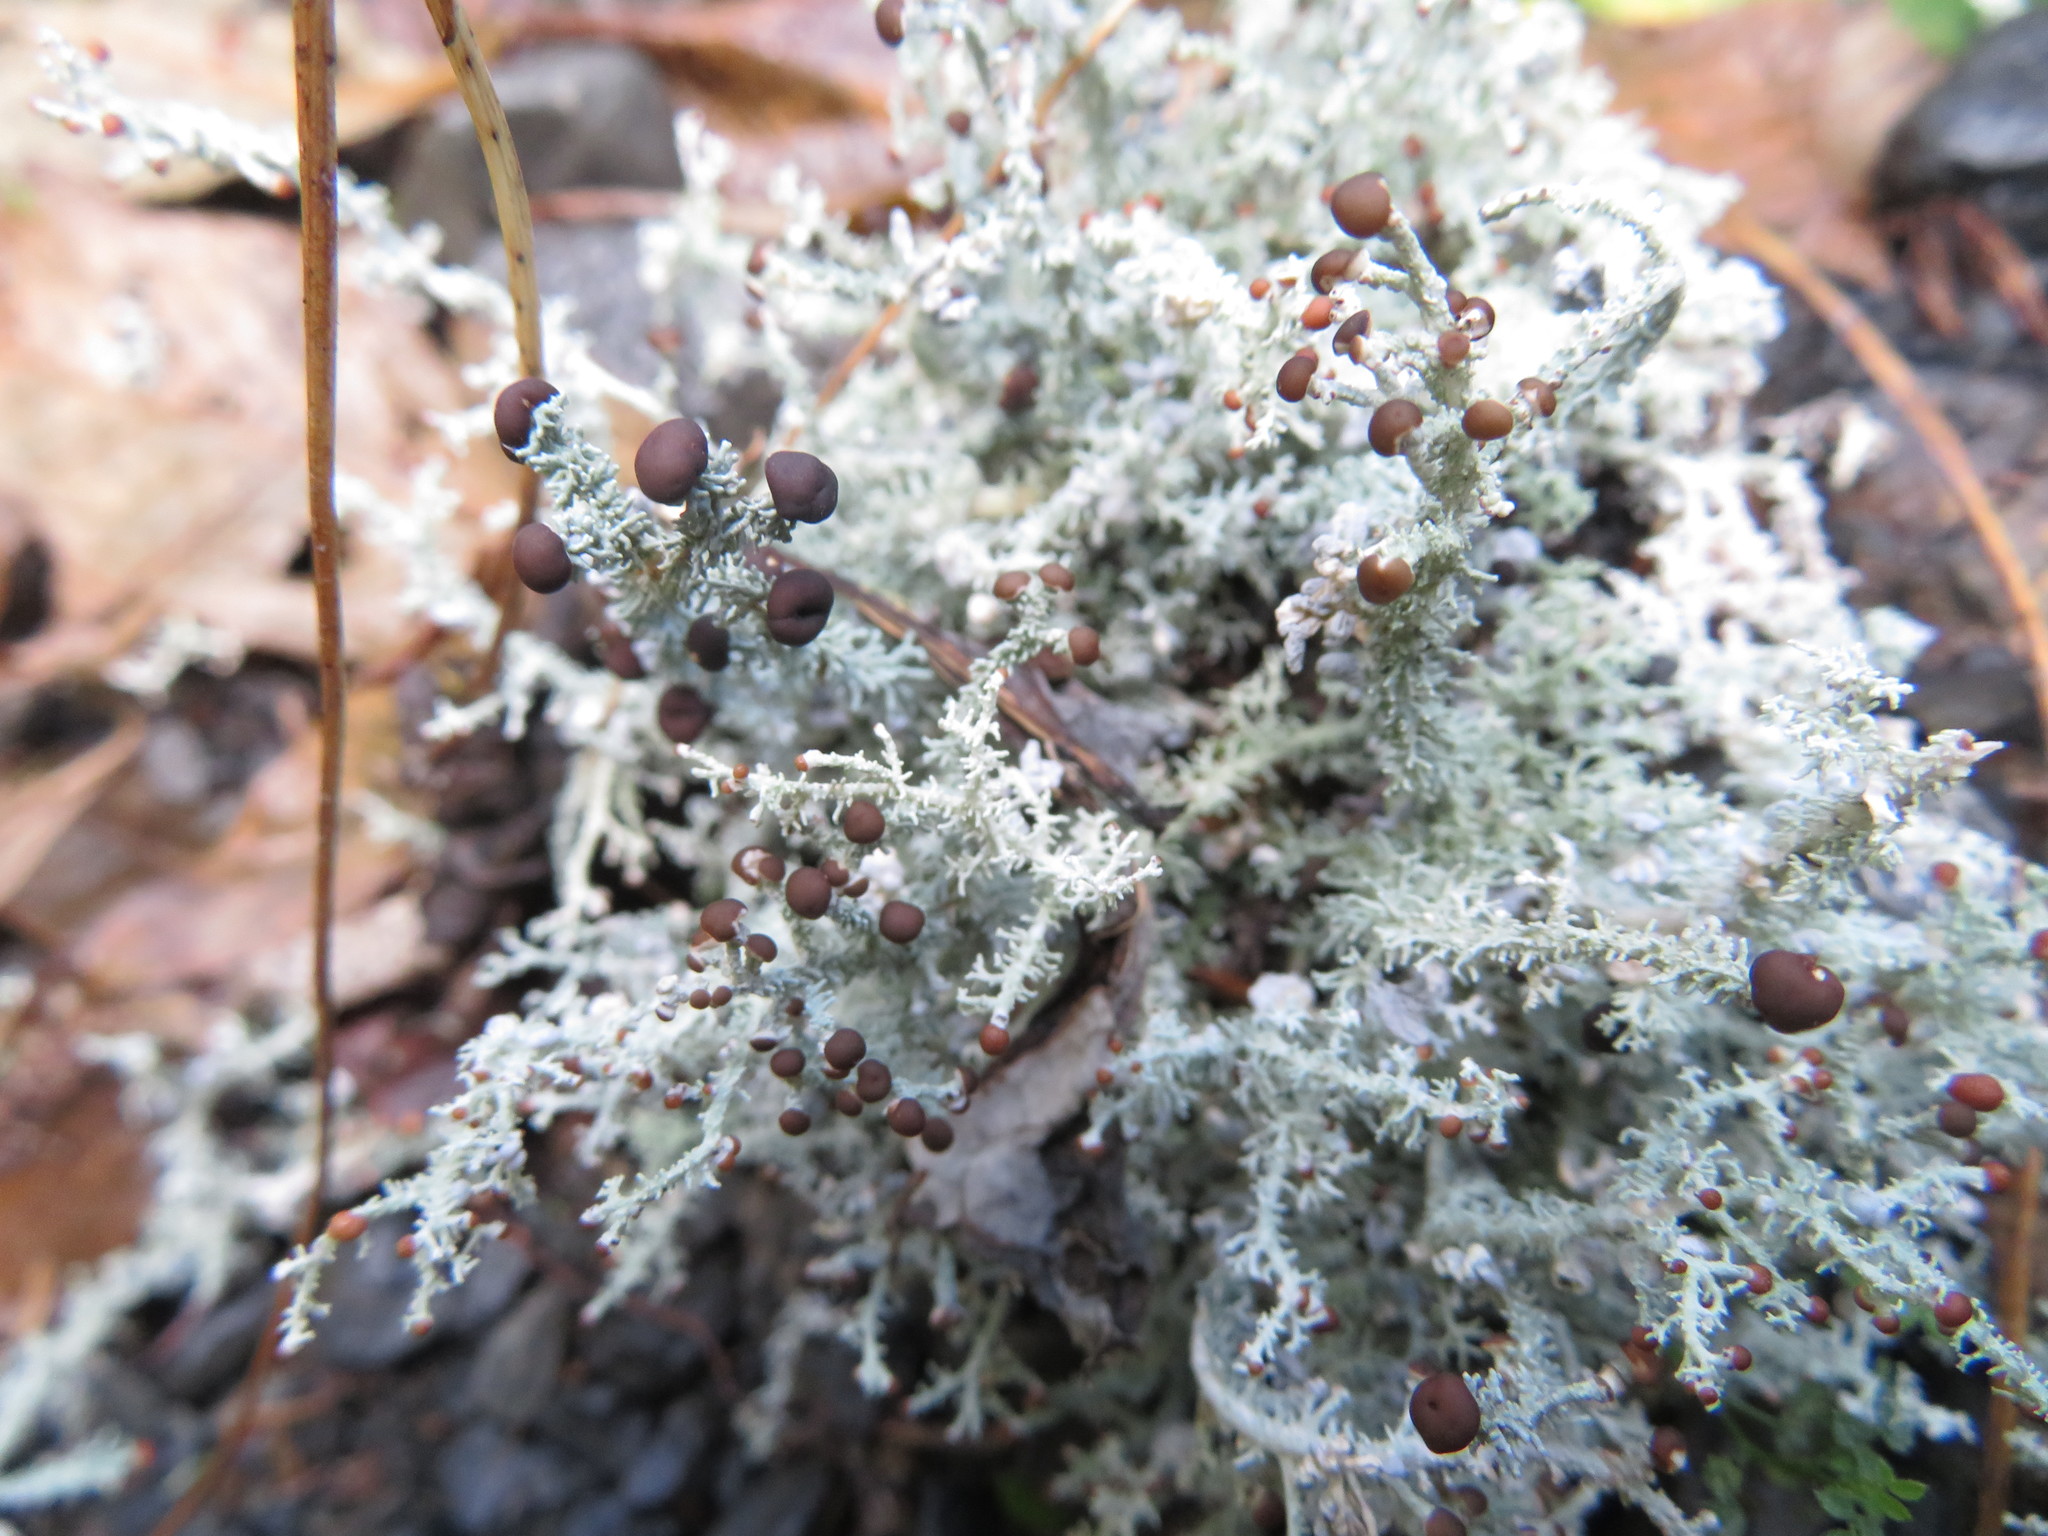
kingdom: Fungi
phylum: Ascomycota
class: Lecanoromycetes
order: Lecanorales
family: Stereocaulaceae
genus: Stereocaulon
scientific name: Stereocaulon ramulosum
